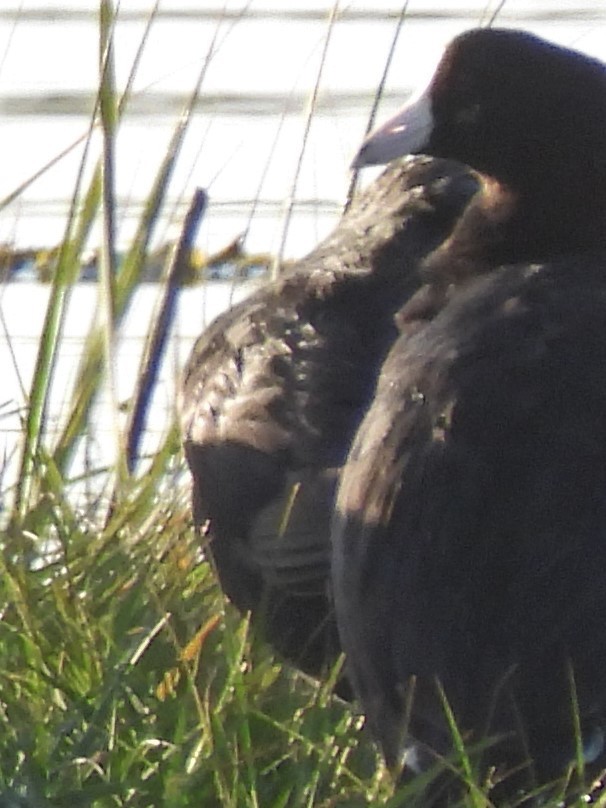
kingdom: Animalia
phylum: Chordata
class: Aves
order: Gruiformes
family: Rallidae
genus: Fulica
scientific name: Fulica americana
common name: American coot
